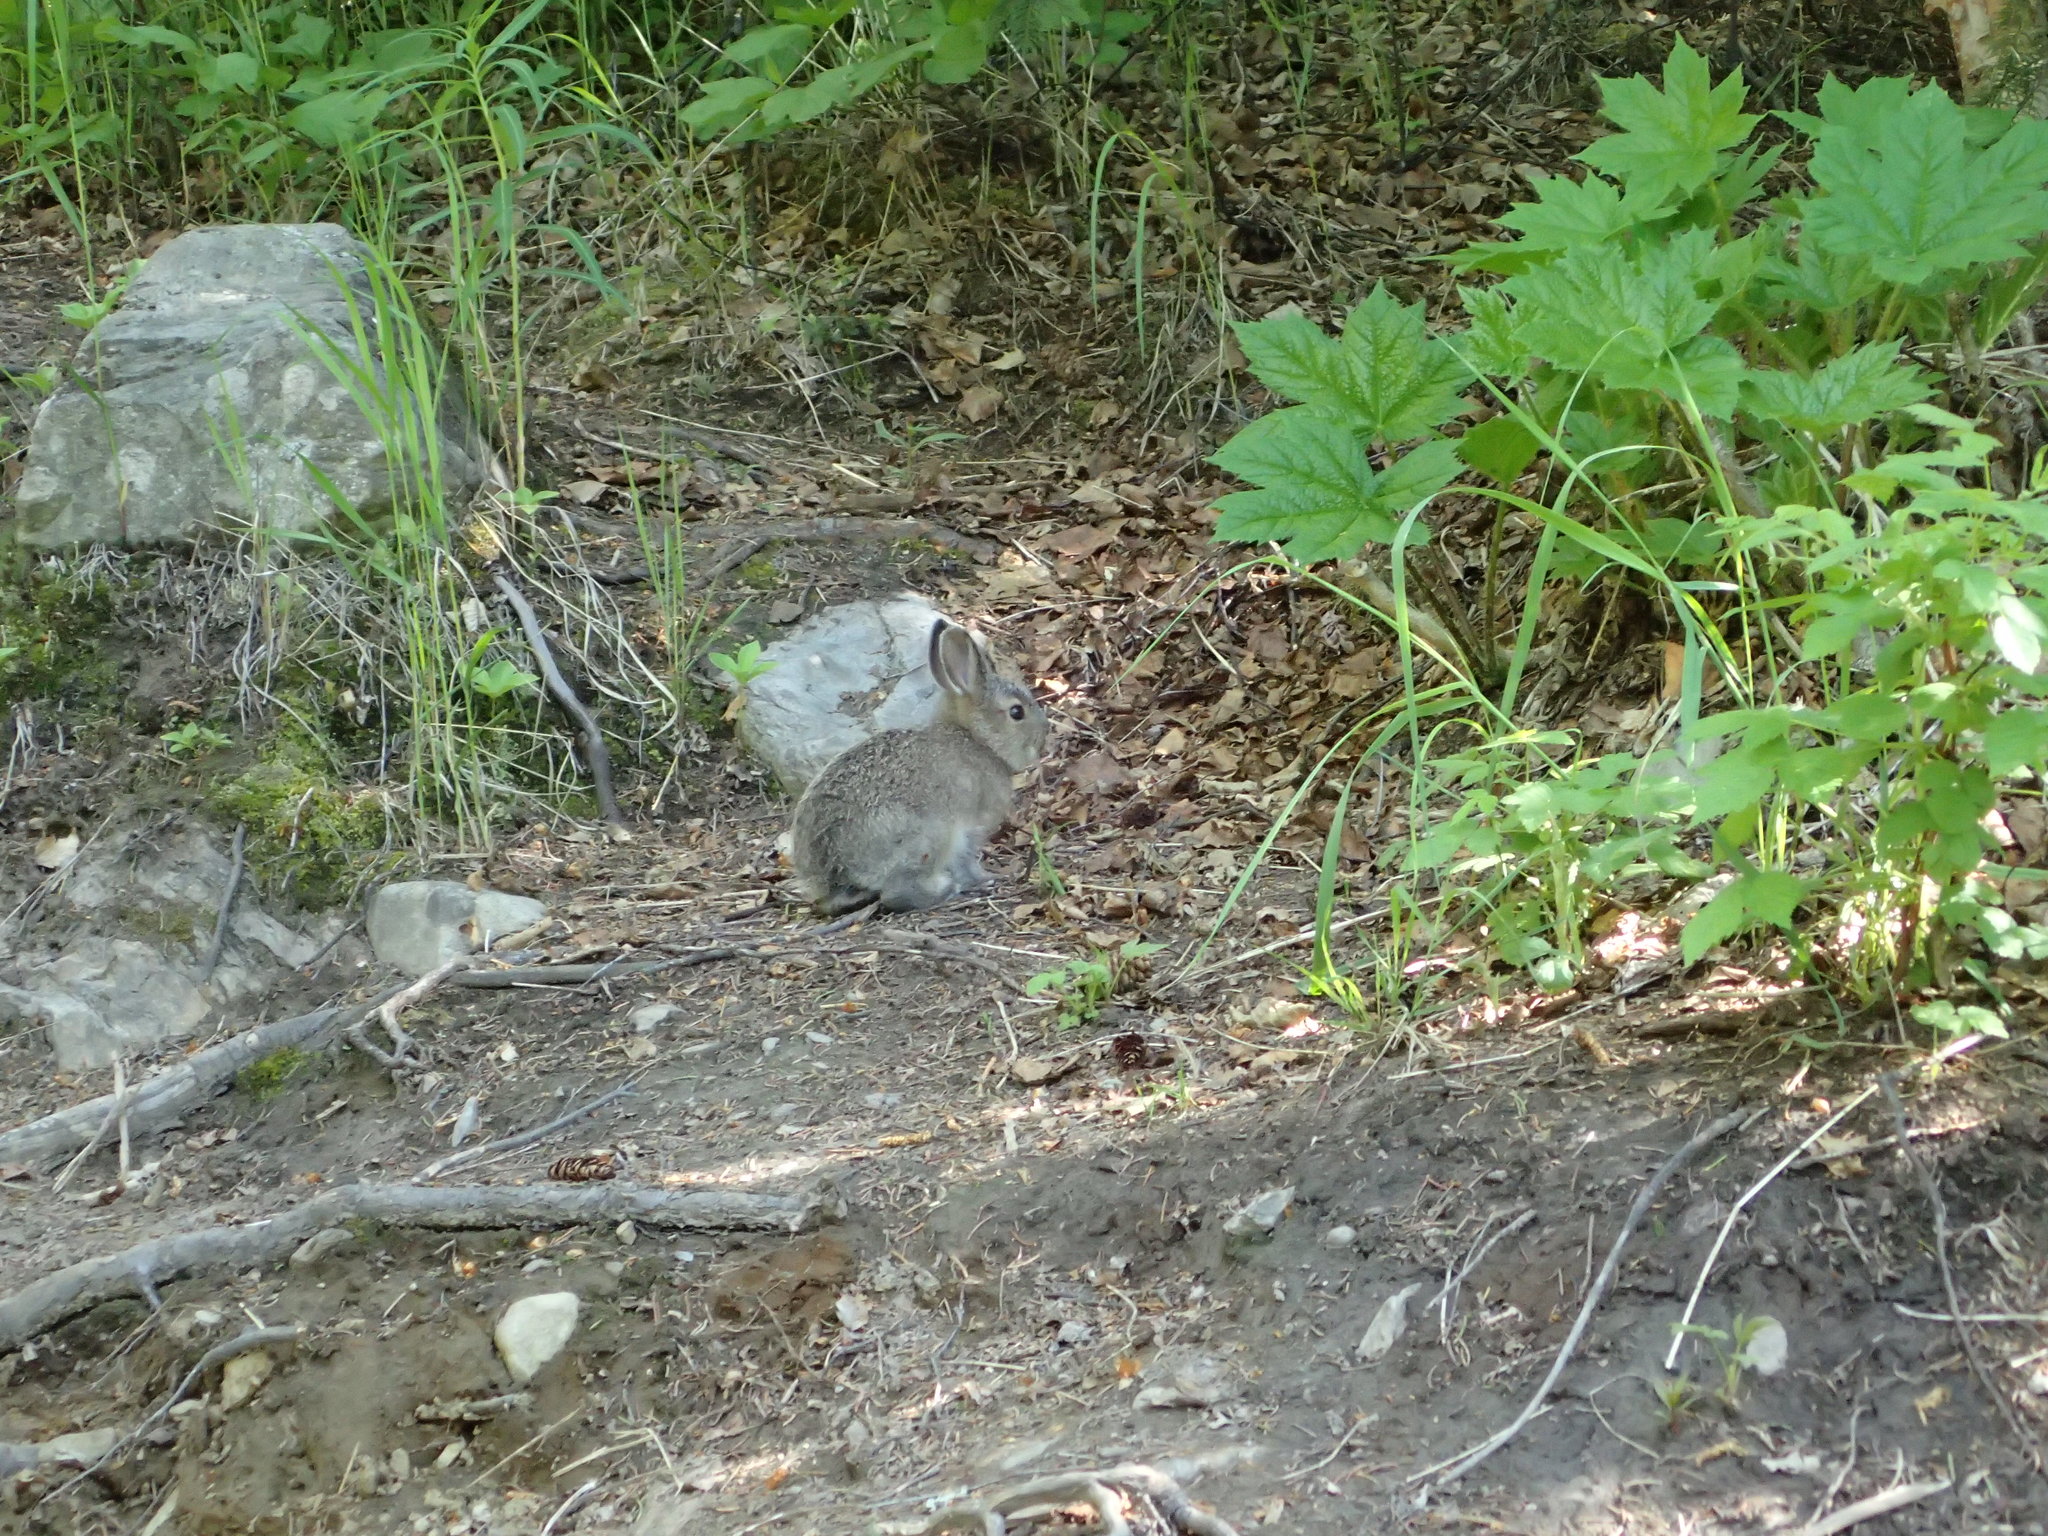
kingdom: Animalia
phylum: Chordata
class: Mammalia
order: Lagomorpha
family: Leporidae
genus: Lepus
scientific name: Lepus americanus
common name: Snowshoe hare
